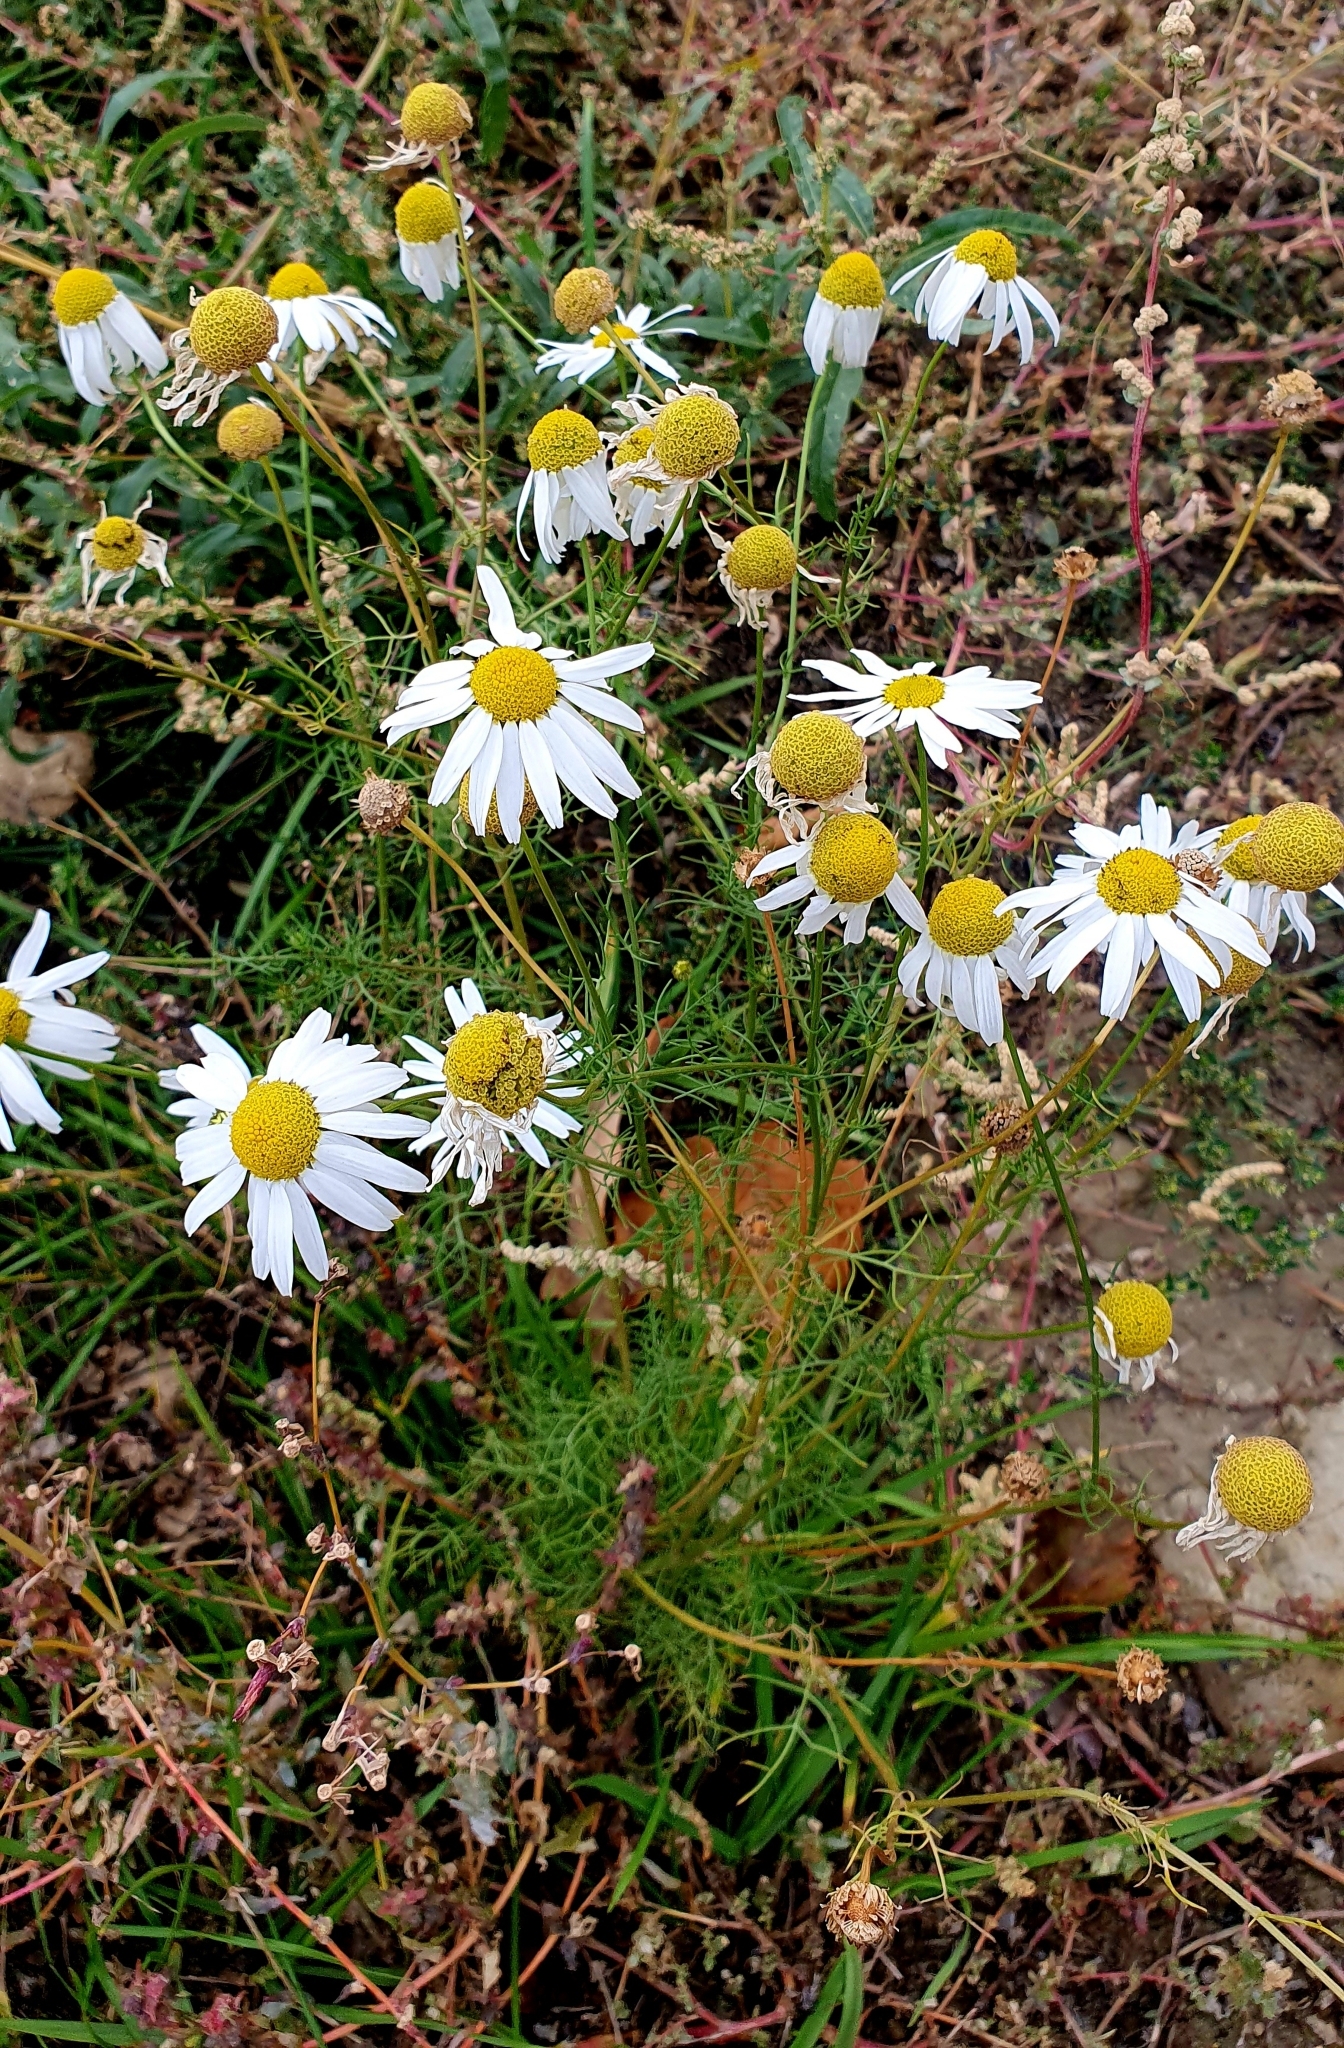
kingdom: Plantae
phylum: Tracheophyta
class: Magnoliopsida
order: Asterales
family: Asteraceae
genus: Tripleurospermum
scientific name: Tripleurospermum inodorum
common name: Scentless mayweed
